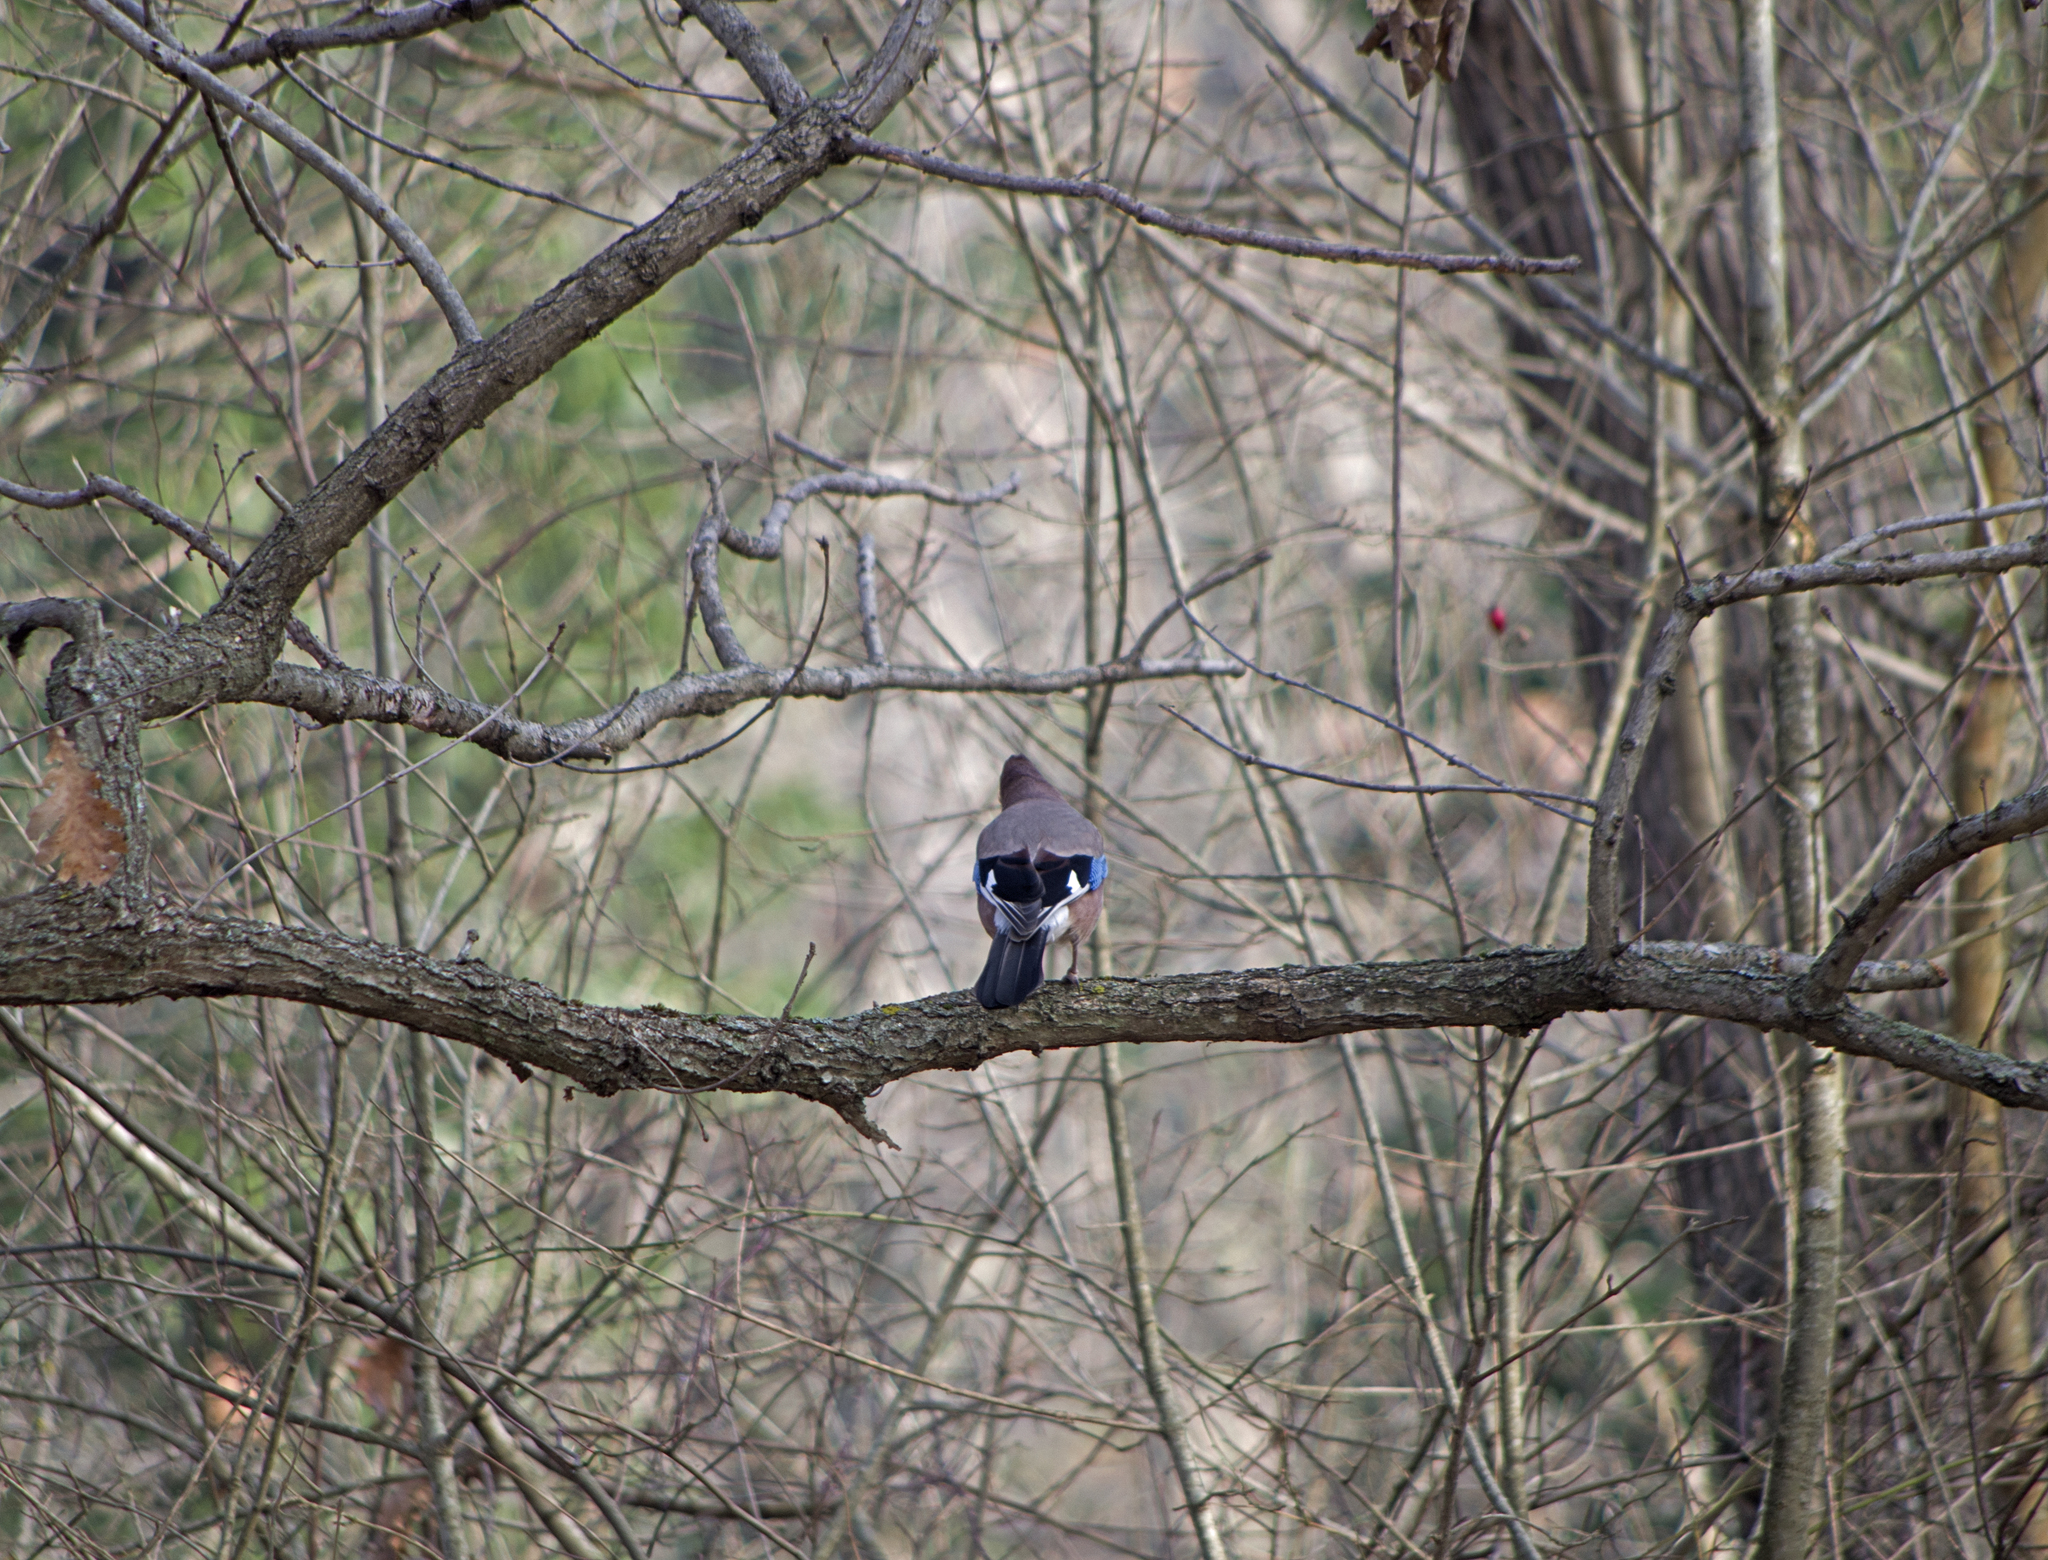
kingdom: Animalia
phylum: Chordata
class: Aves
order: Passeriformes
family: Corvidae
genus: Garrulus
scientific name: Garrulus glandarius
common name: Eurasian jay
